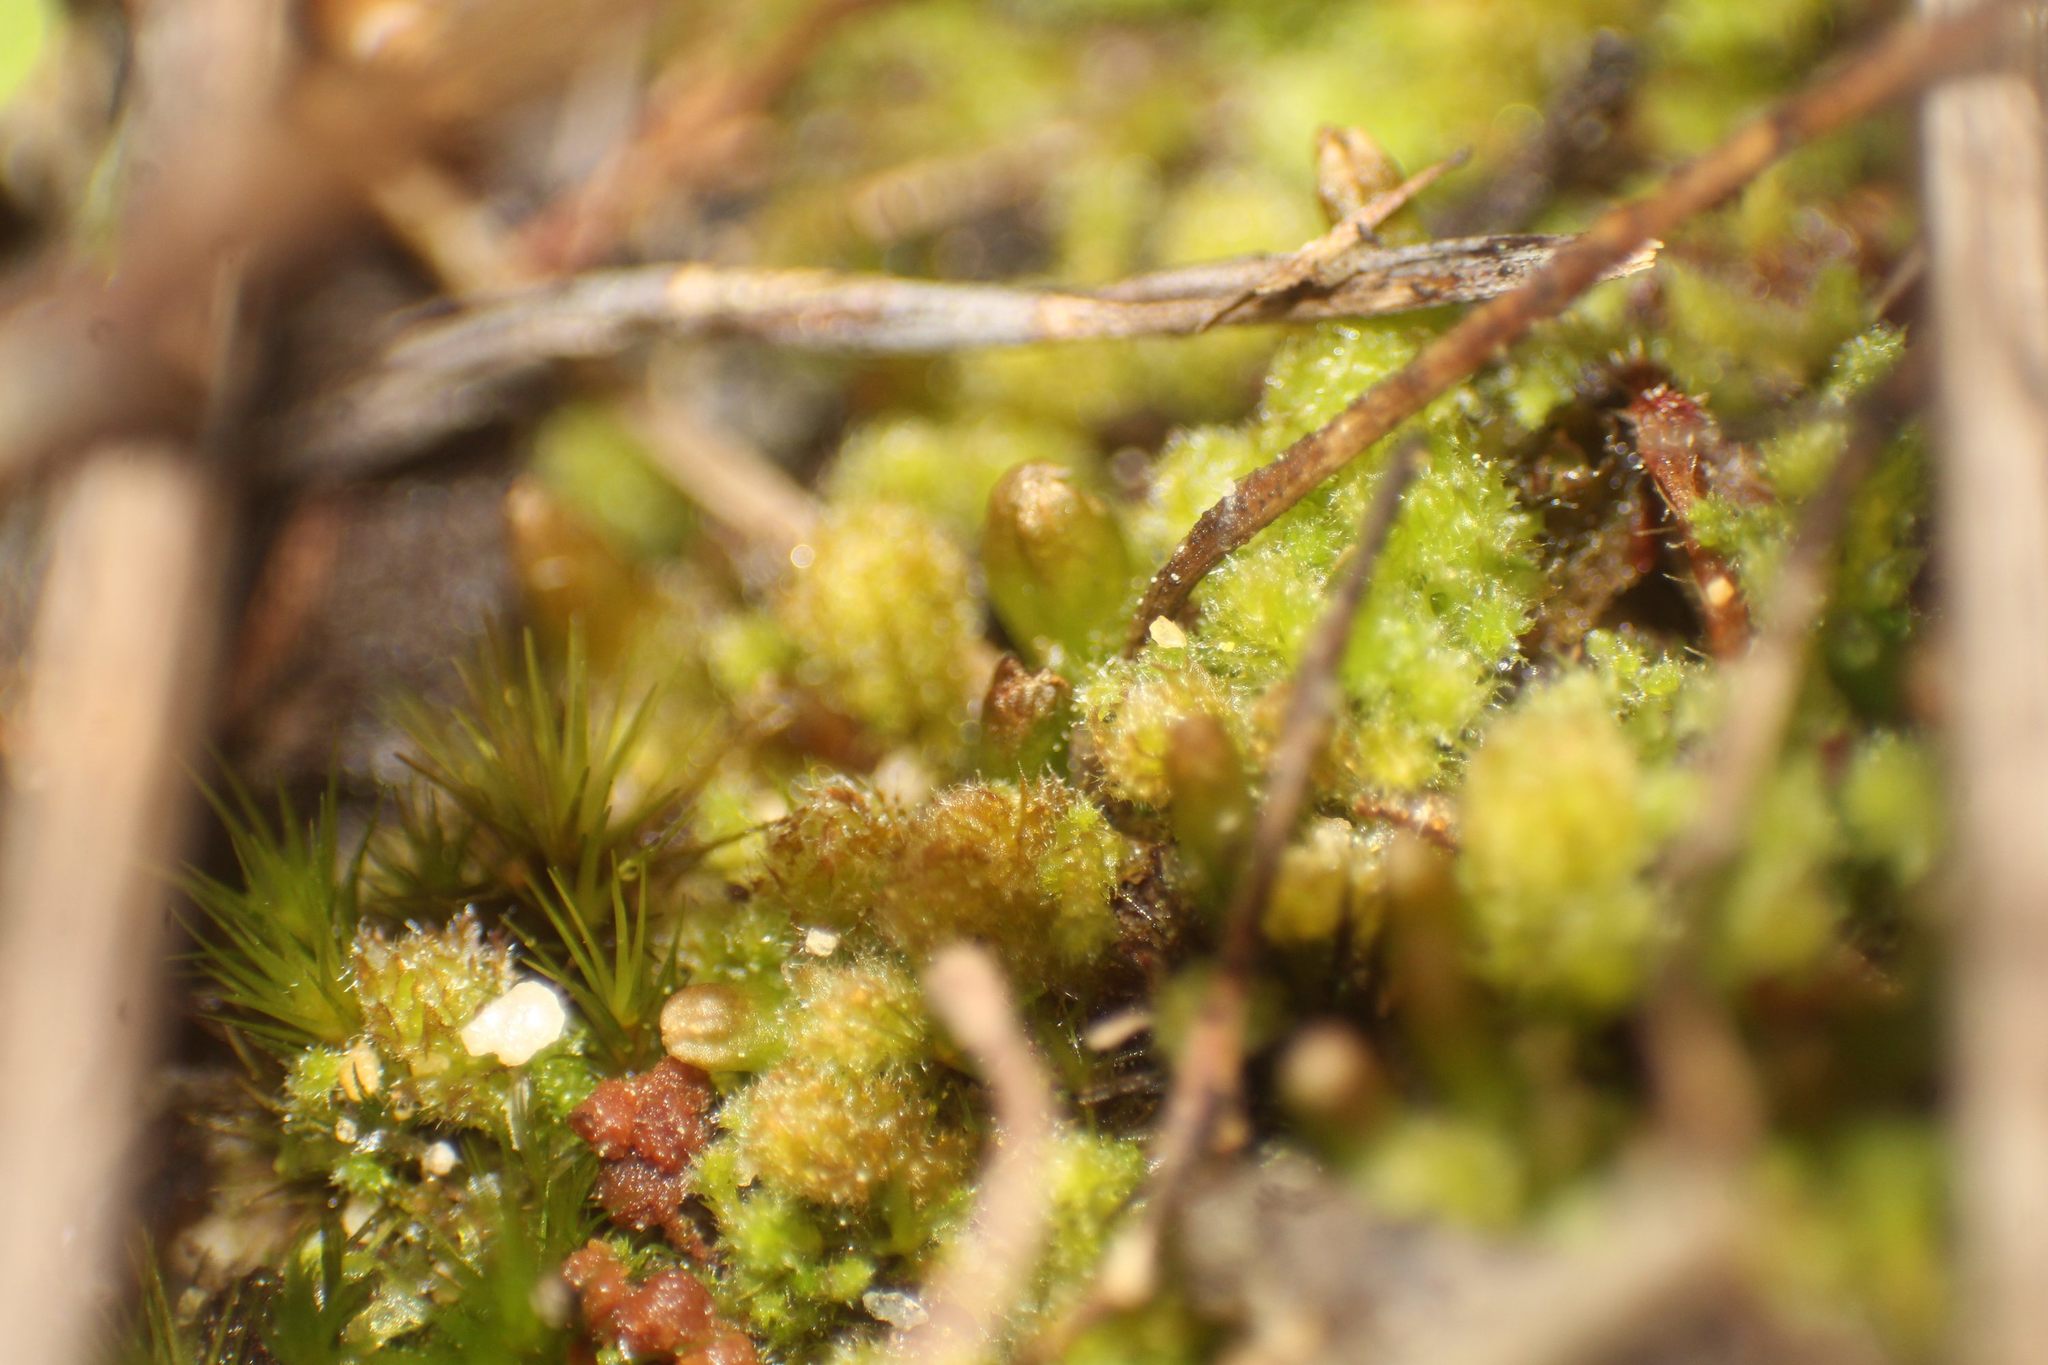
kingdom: Plantae
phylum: Marchantiophyta
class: Jungermanniopsida
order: Jungermanniales
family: Cephaloziellaceae
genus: Chaetophyllopsis
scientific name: Chaetophyllopsis whiteleggei
